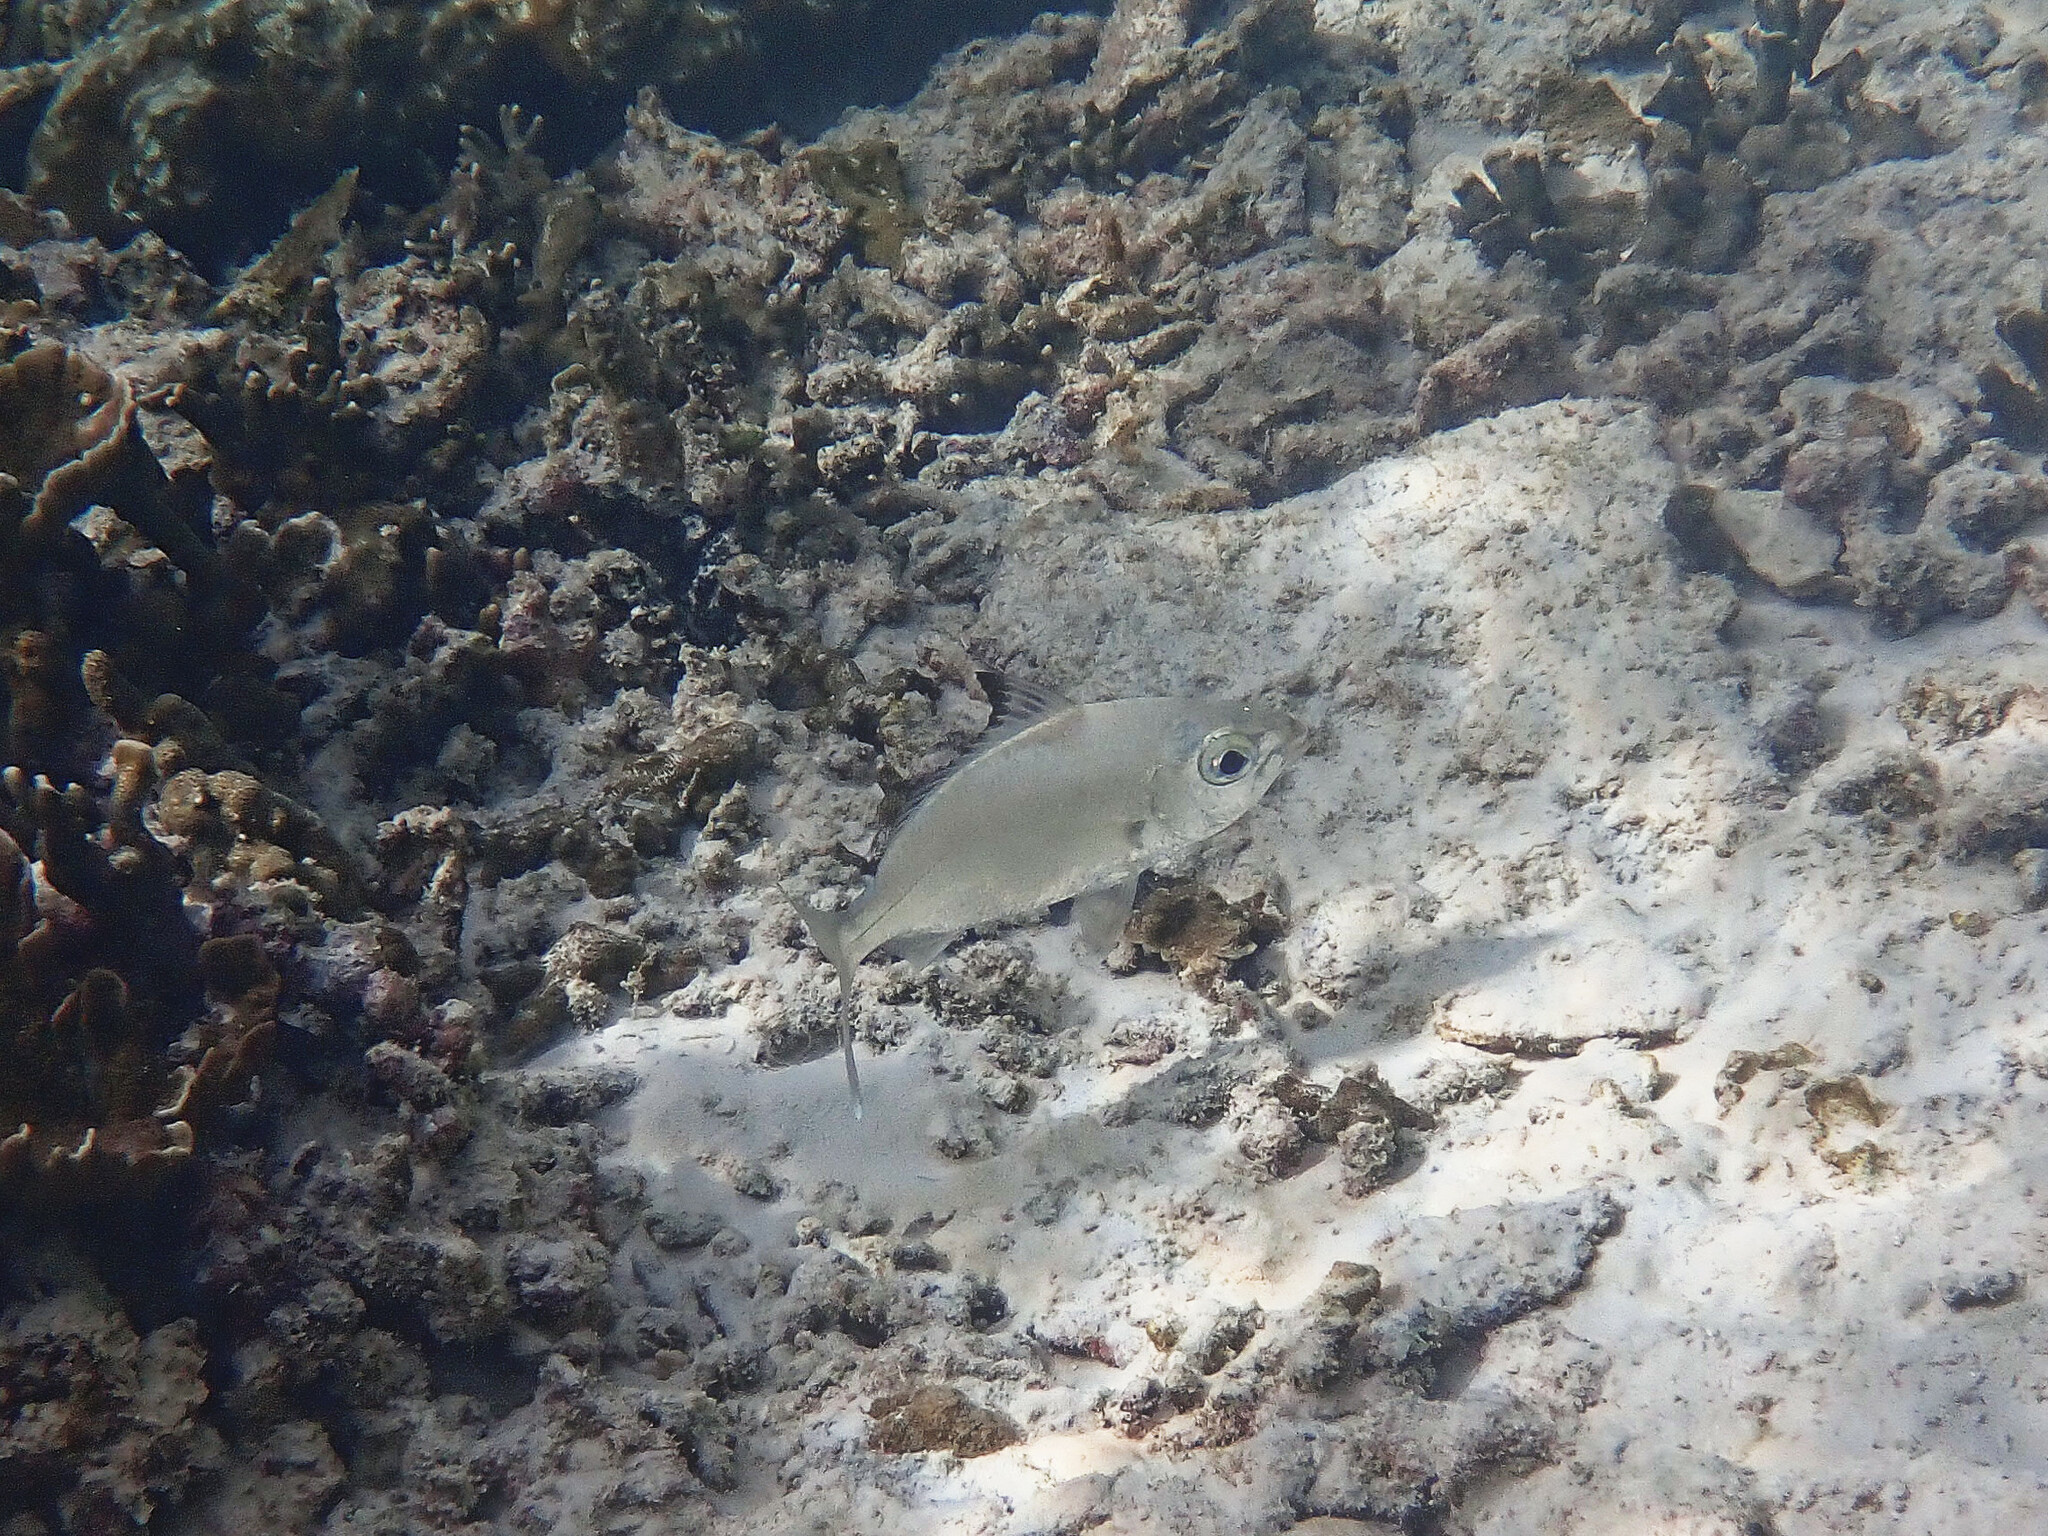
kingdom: Animalia
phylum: Chordata
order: Perciformes
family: Gerreidae
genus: Gerres
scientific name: Gerres oyena
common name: Common silver-biddy
